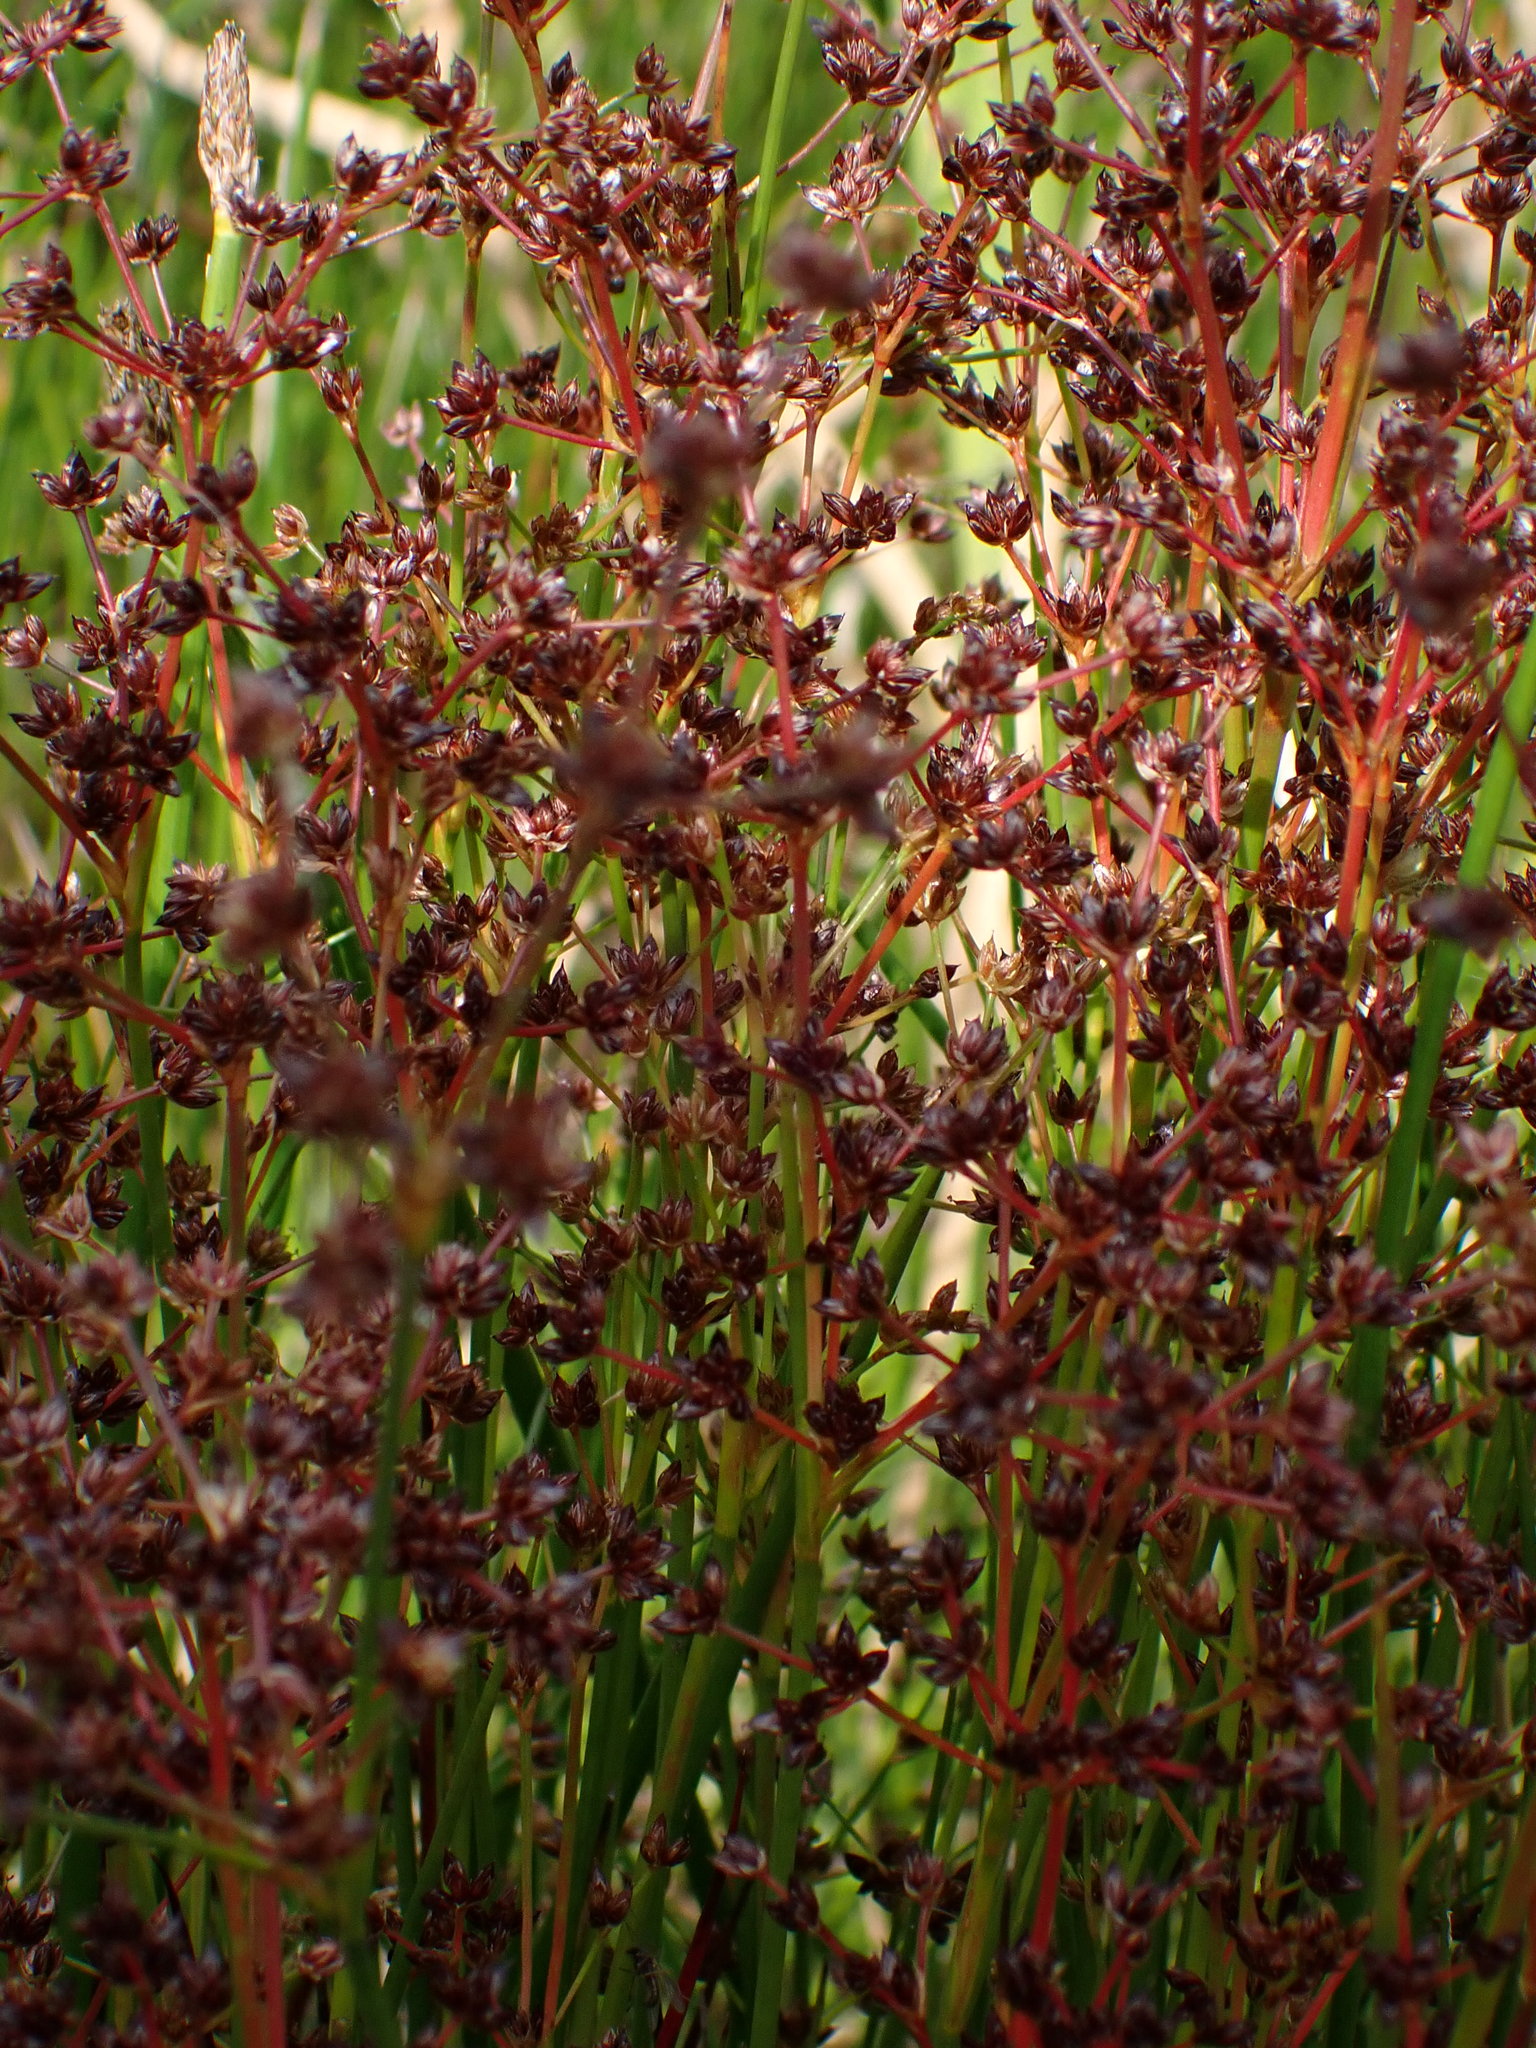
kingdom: Plantae
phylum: Tracheophyta
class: Liliopsida
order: Poales
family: Juncaceae
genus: Juncus
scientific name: Juncus articulatus
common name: Jointed rush
